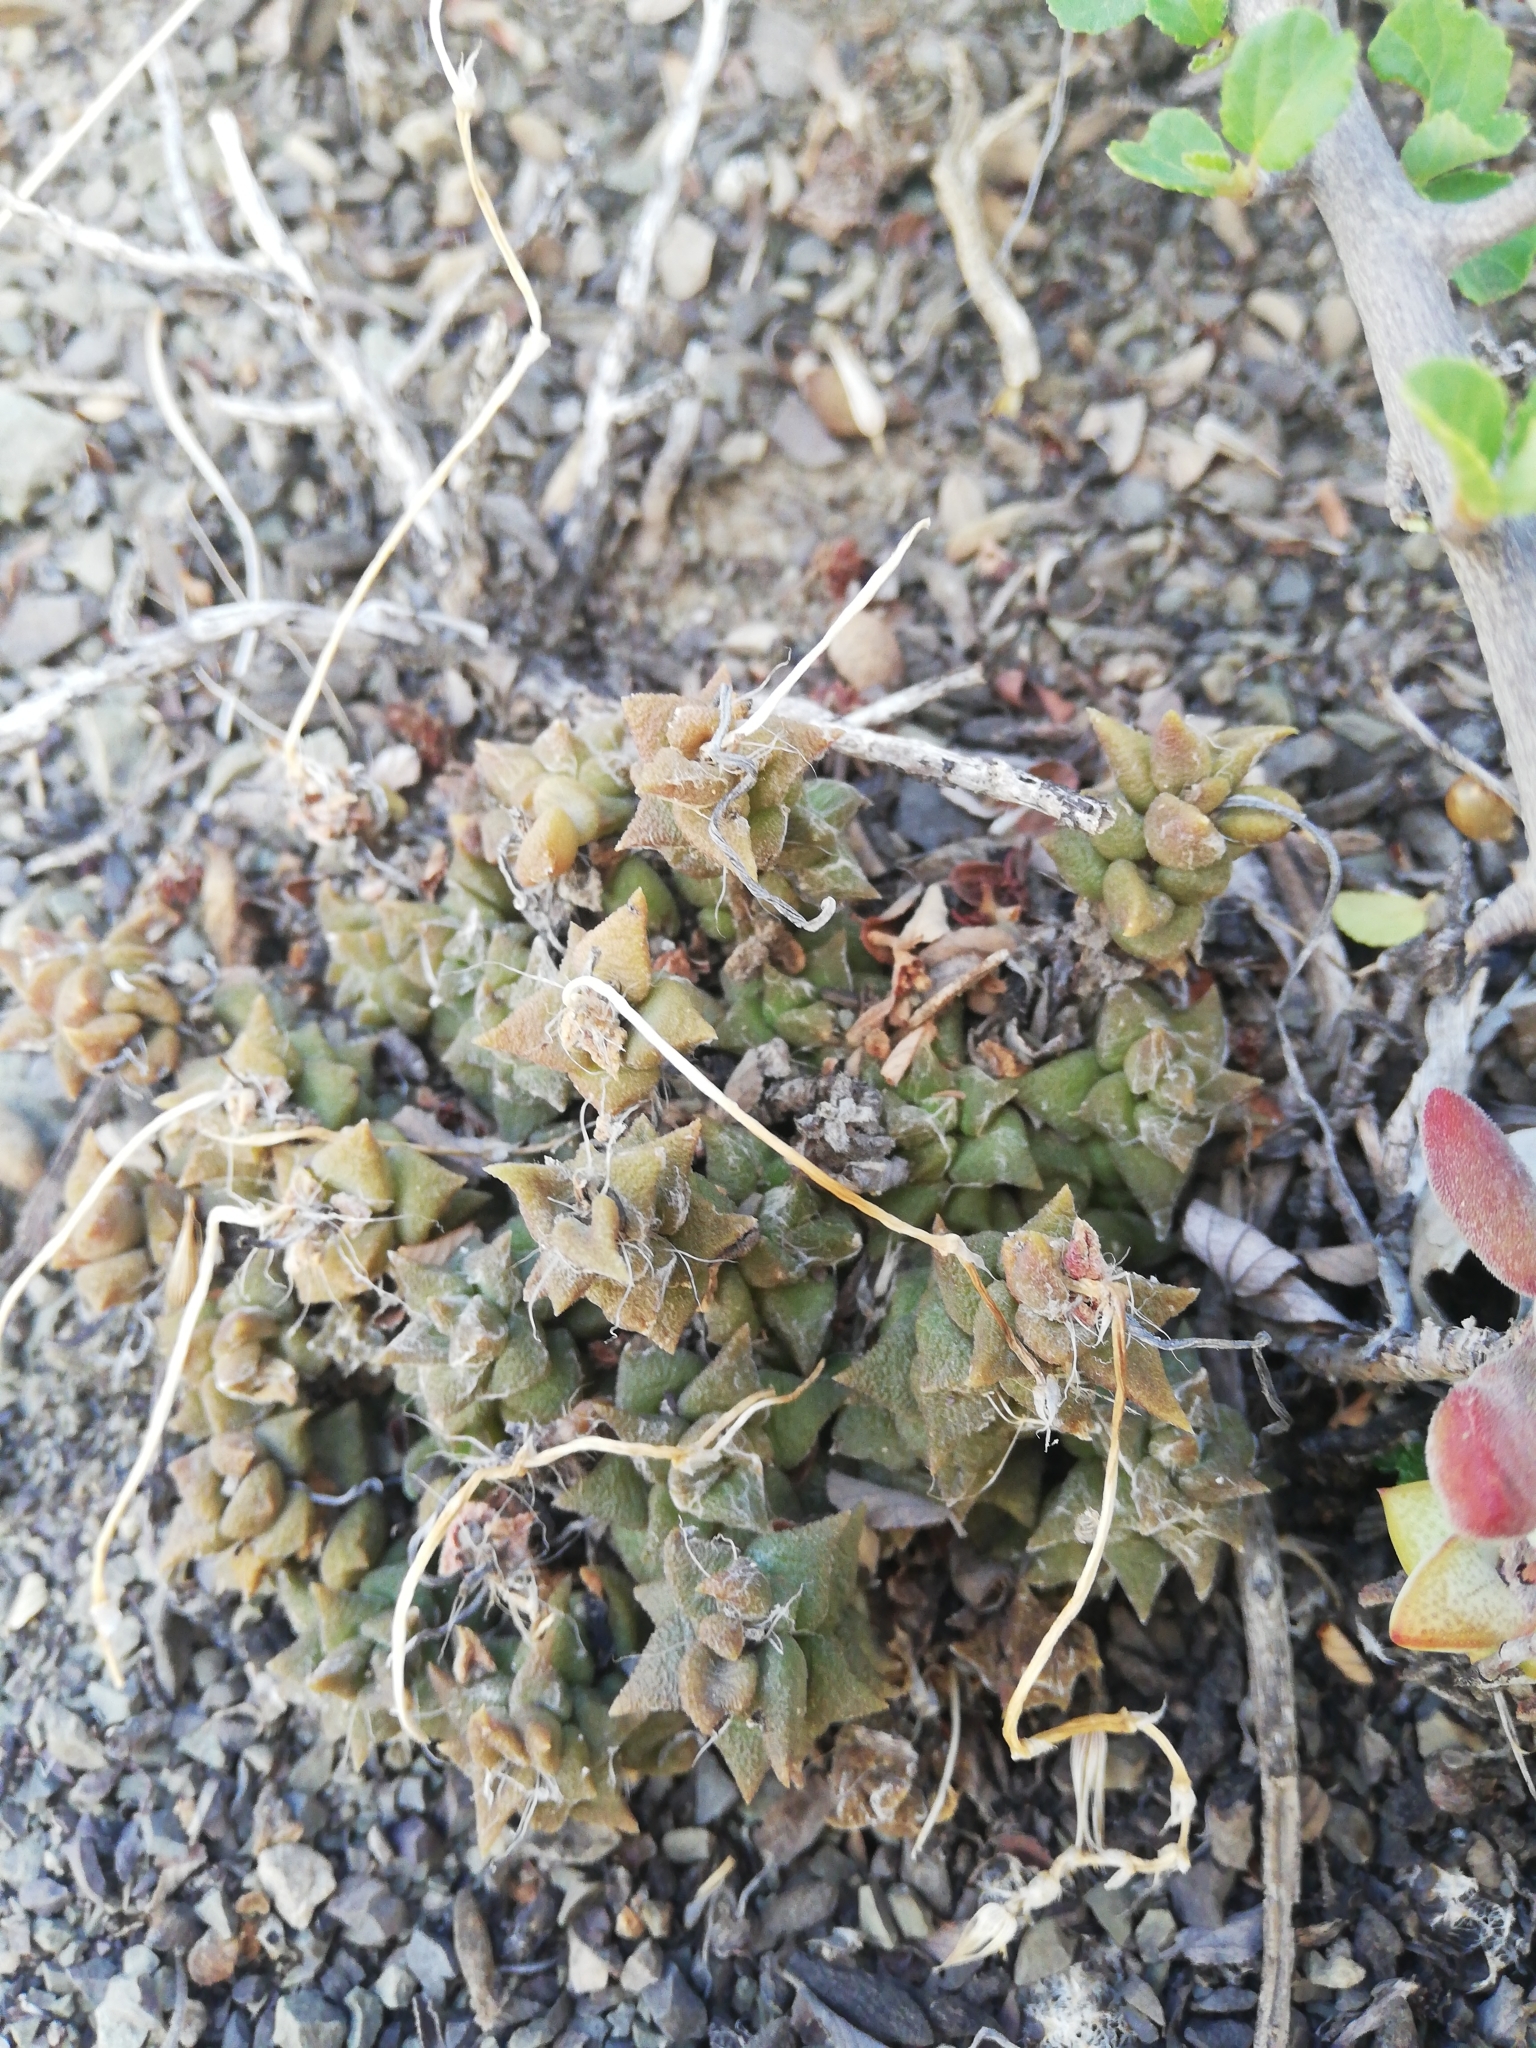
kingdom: Plantae
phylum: Tracheophyta
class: Magnoliopsida
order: Caryophyllales
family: Anacampserotaceae
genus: Anacampseros
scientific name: Anacampseros arachnoides
